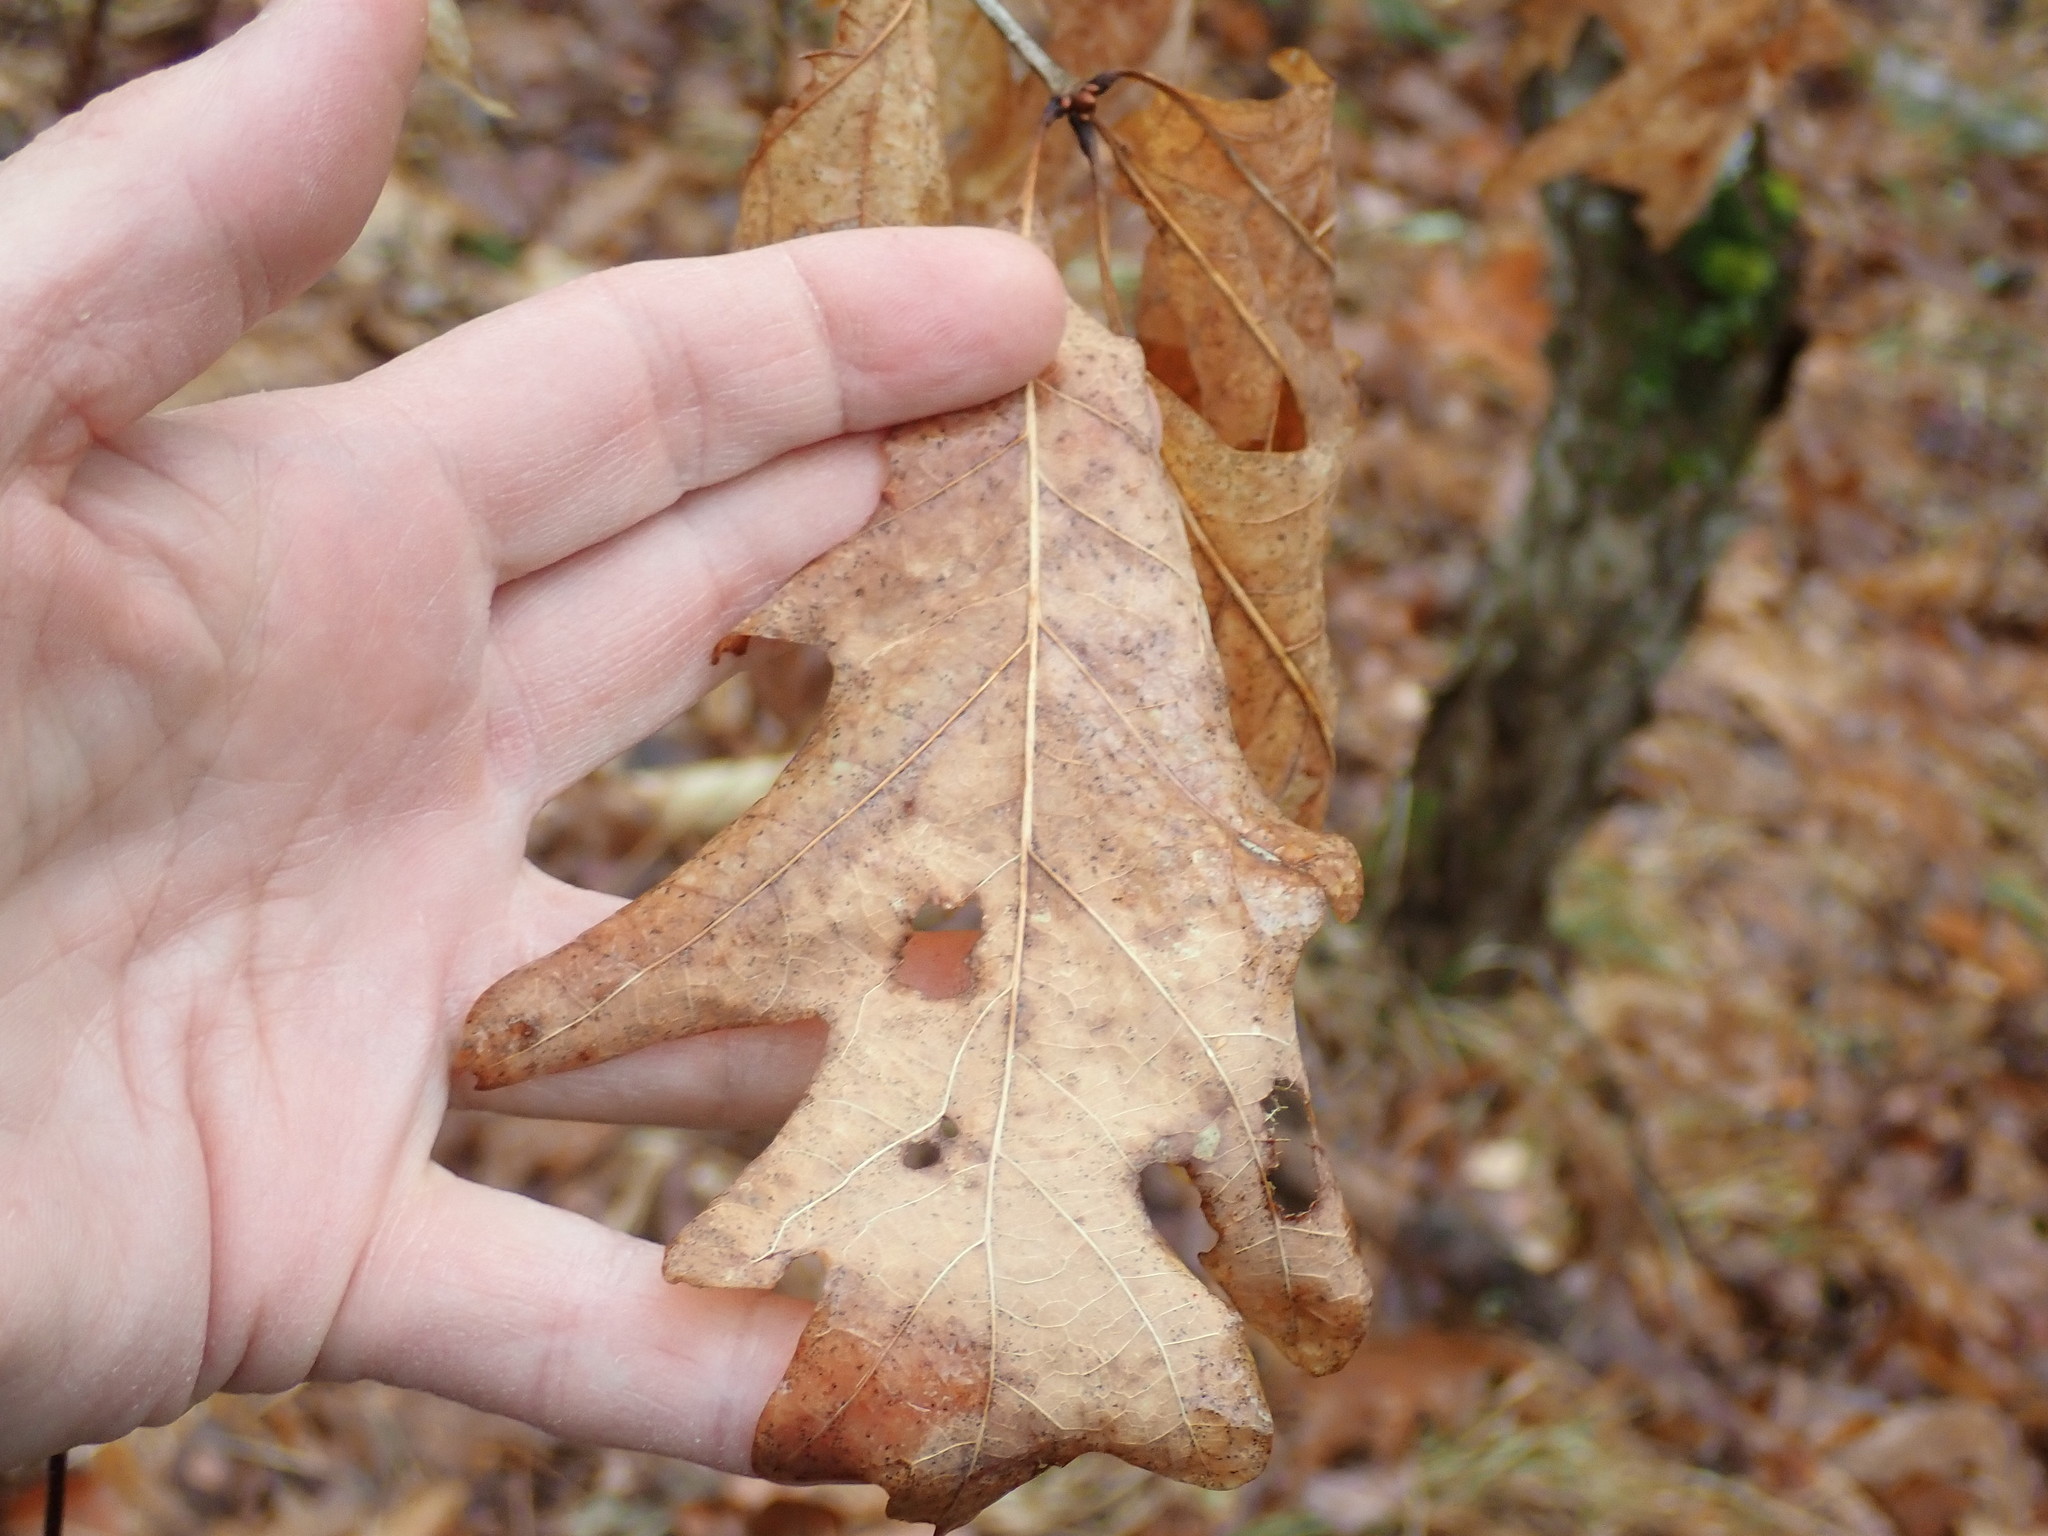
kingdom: Plantae
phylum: Tracheophyta
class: Magnoliopsida
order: Fagales
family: Fagaceae
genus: Quercus
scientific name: Quercus alba
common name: White oak
